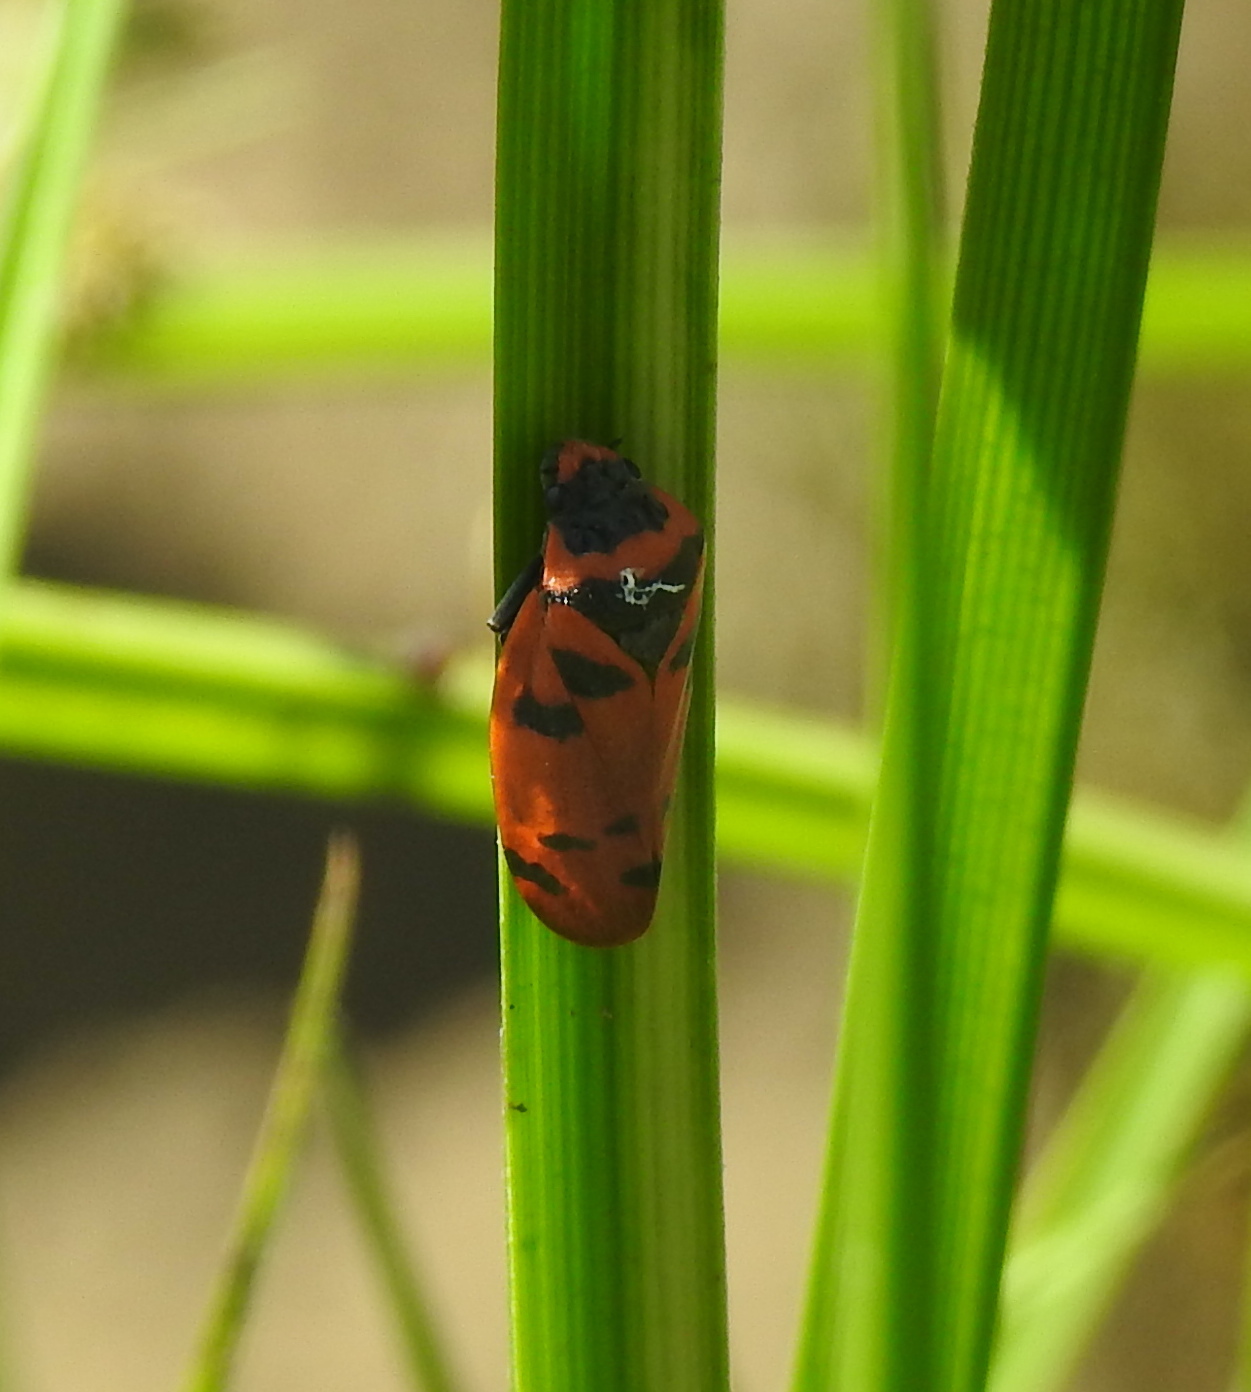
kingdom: Animalia
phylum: Arthropoda
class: Insecta
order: Hemiptera
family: Cercopidae
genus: Locris
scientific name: Locris arithmetica
